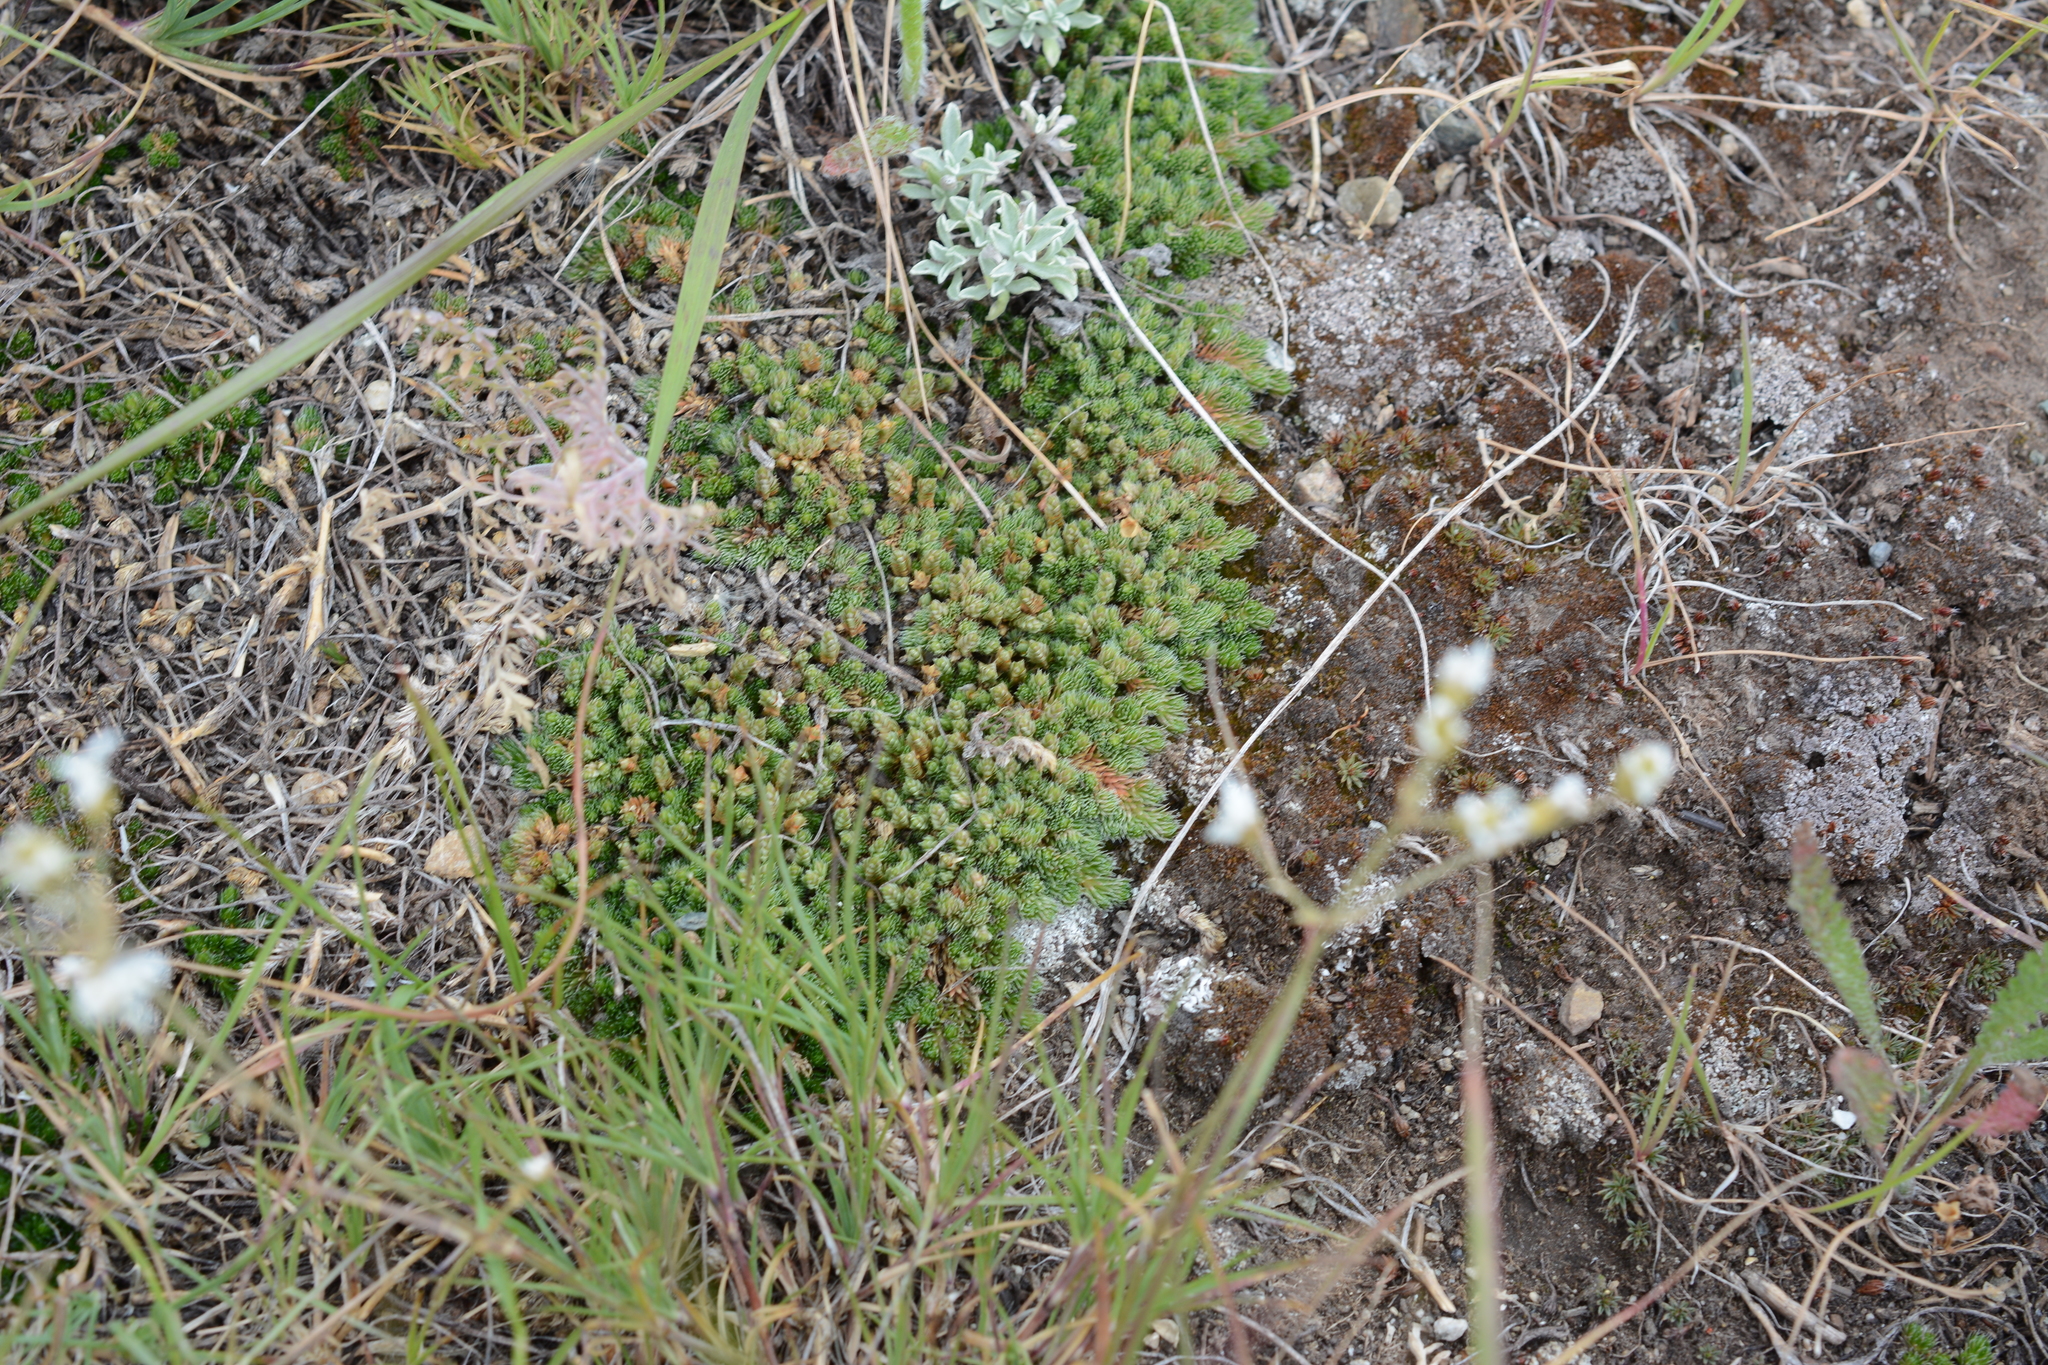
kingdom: Plantae
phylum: Tracheophyta
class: Lycopodiopsida
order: Selaginellales
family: Selaginellaceae
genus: Selaginella
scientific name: Selaginella densa
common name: Mountain spike-moss
